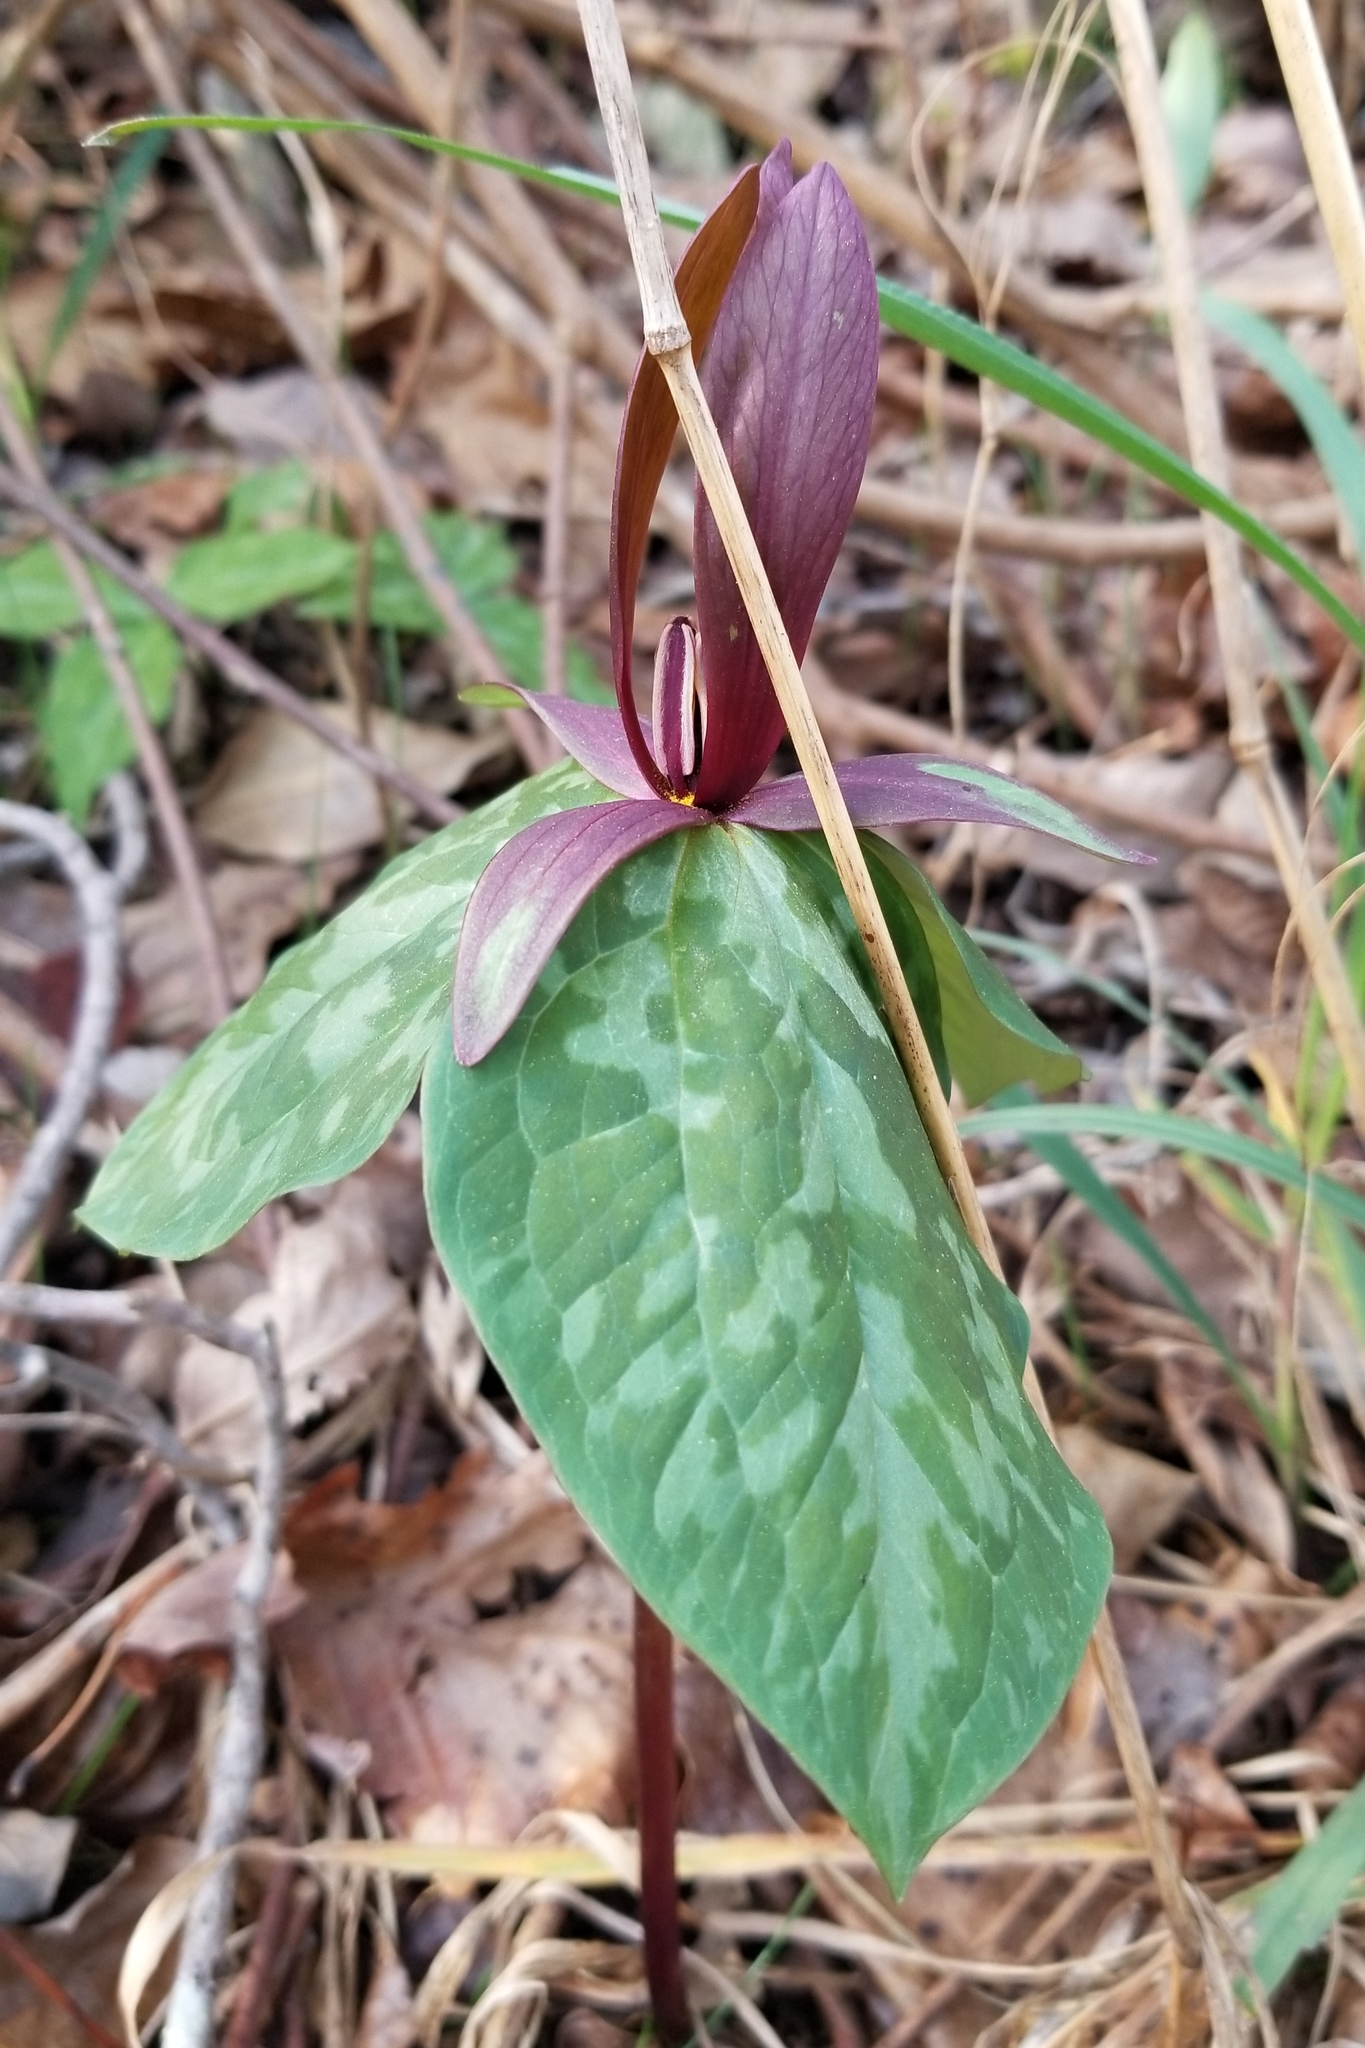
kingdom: Plantae
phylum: Tracheophyta
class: Liliopsida
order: Liliales
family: Melanthiaceae
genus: Trillium
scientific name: Trillium cuneatum
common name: Cuneate trillium
